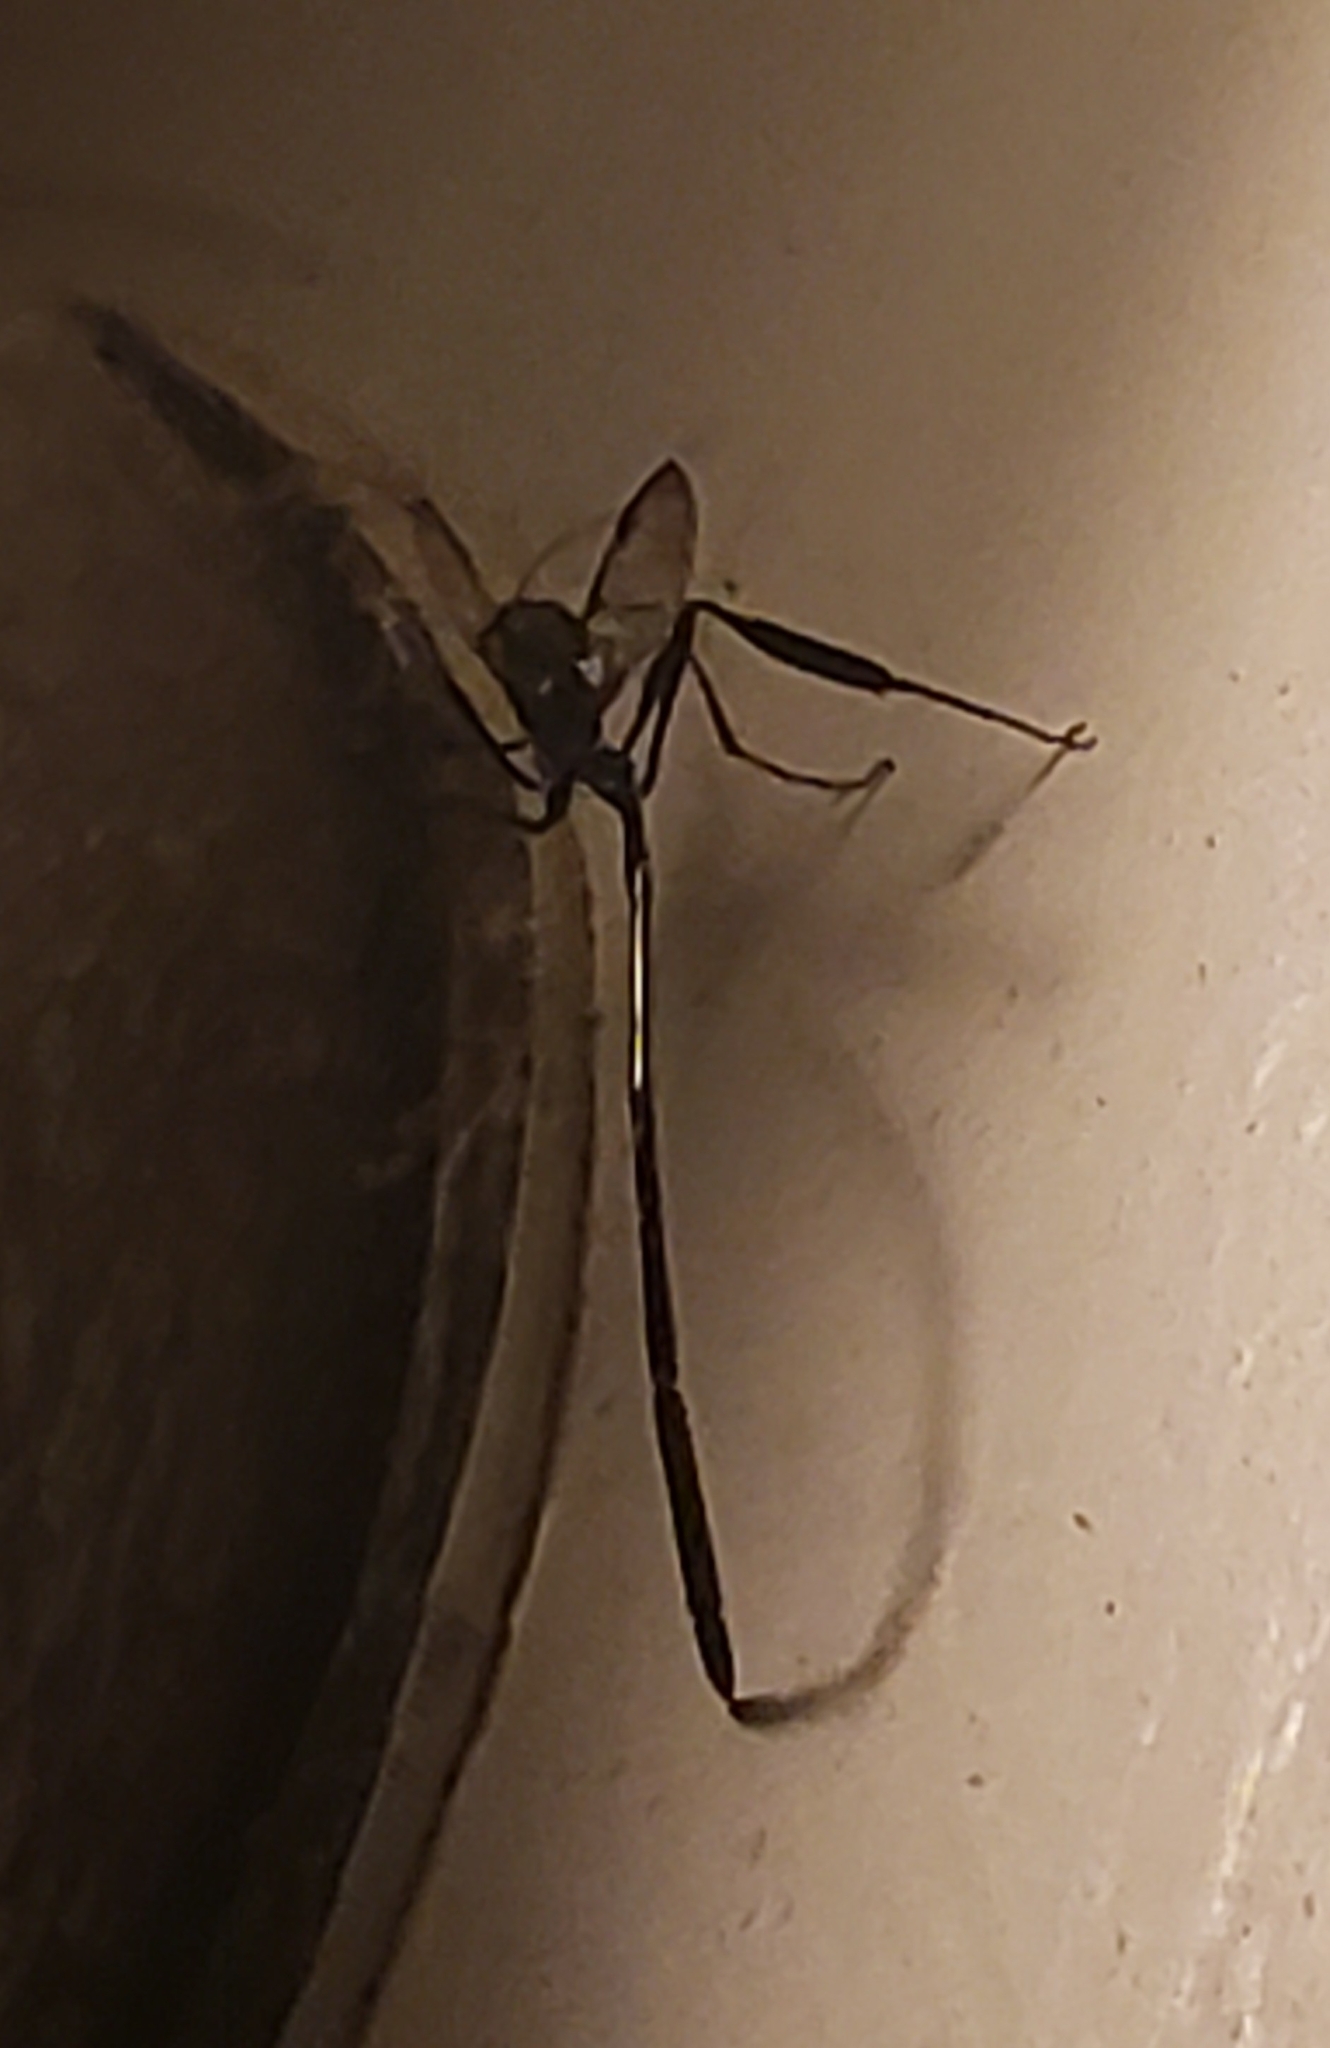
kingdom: Animalia
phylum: Arthropoda
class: Insecta
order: Hymenoptera
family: Pelecinidae
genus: Pelecinus
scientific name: Pelecinus polyturator
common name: American pelecinid wasp
